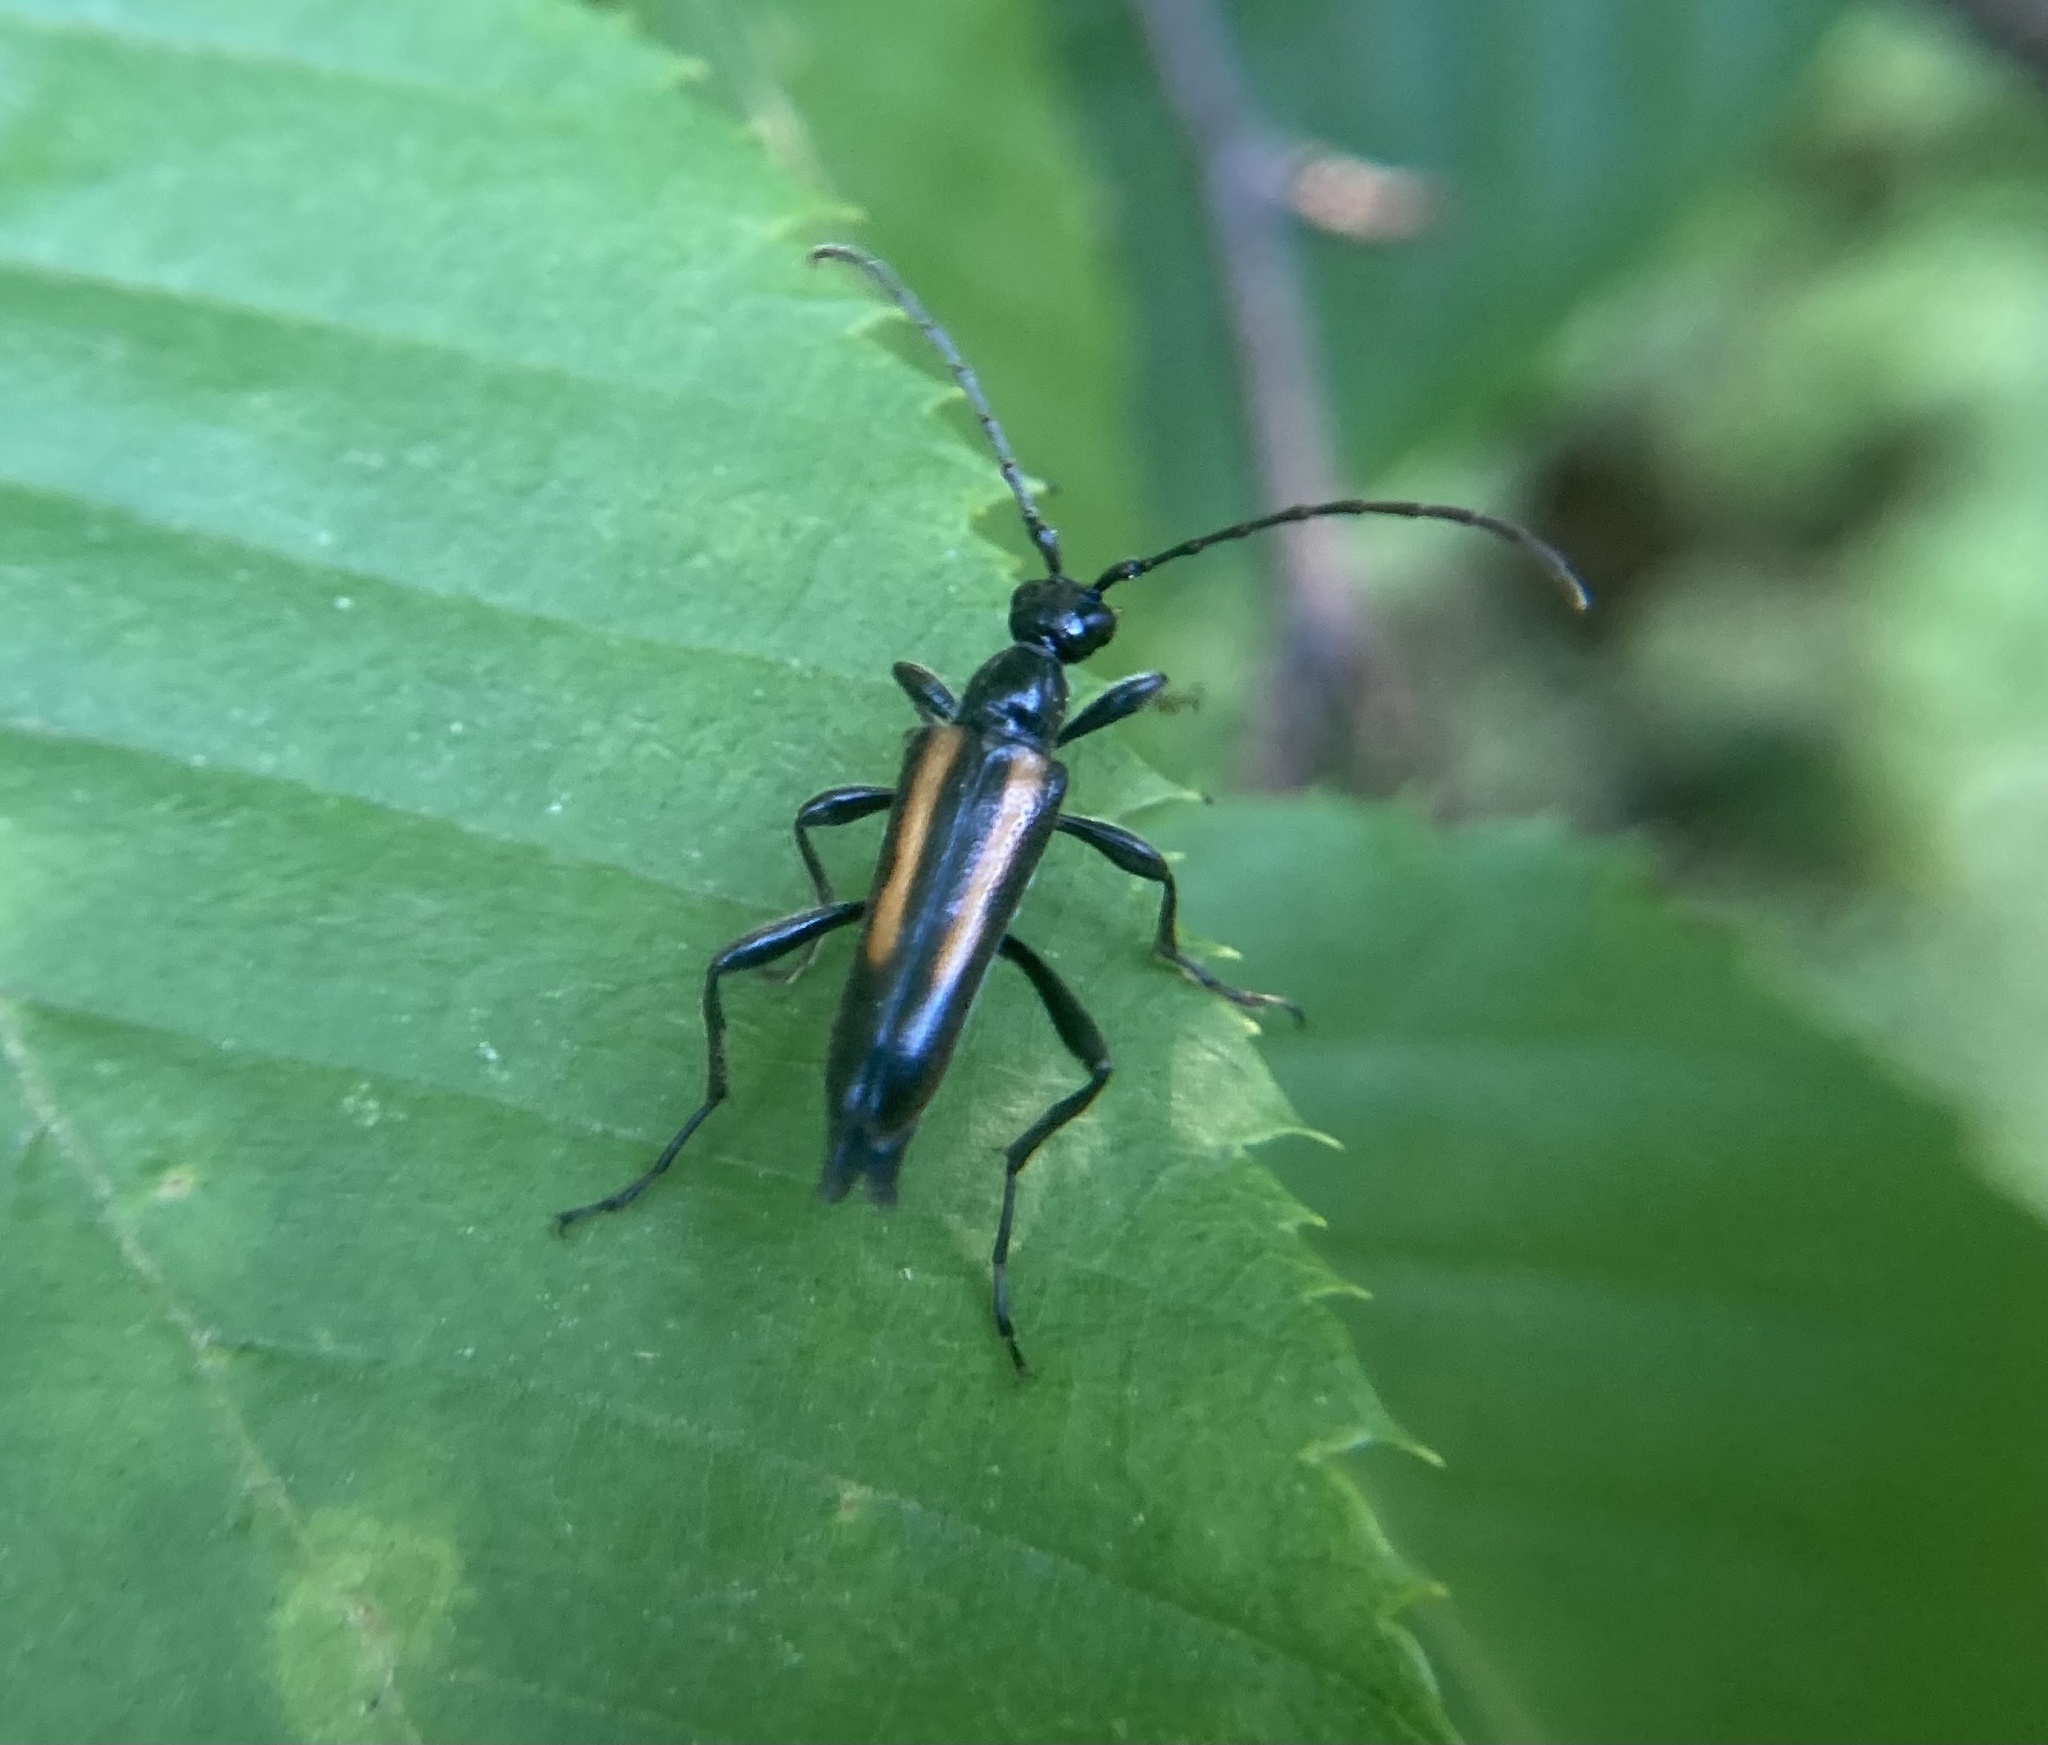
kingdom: Animalia
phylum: Arthropoda
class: Insecta
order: Coleoptera
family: Cerambycidae
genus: Strangalepta
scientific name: Strangalepta abbreviata
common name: Strangalepta flower longhorn beetle
